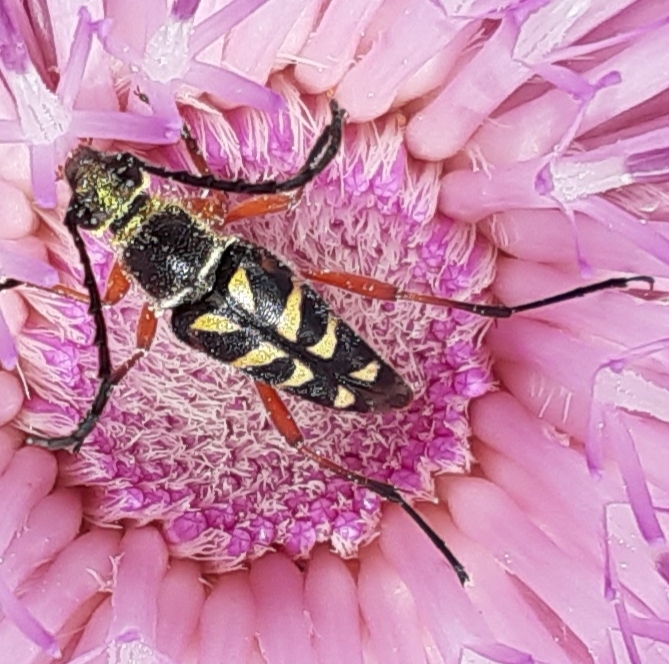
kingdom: Animalia
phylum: Arthropoda
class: Insecta
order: Coleoptera
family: Cerambycidae
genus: Typocerus
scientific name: Typocerus zebra
